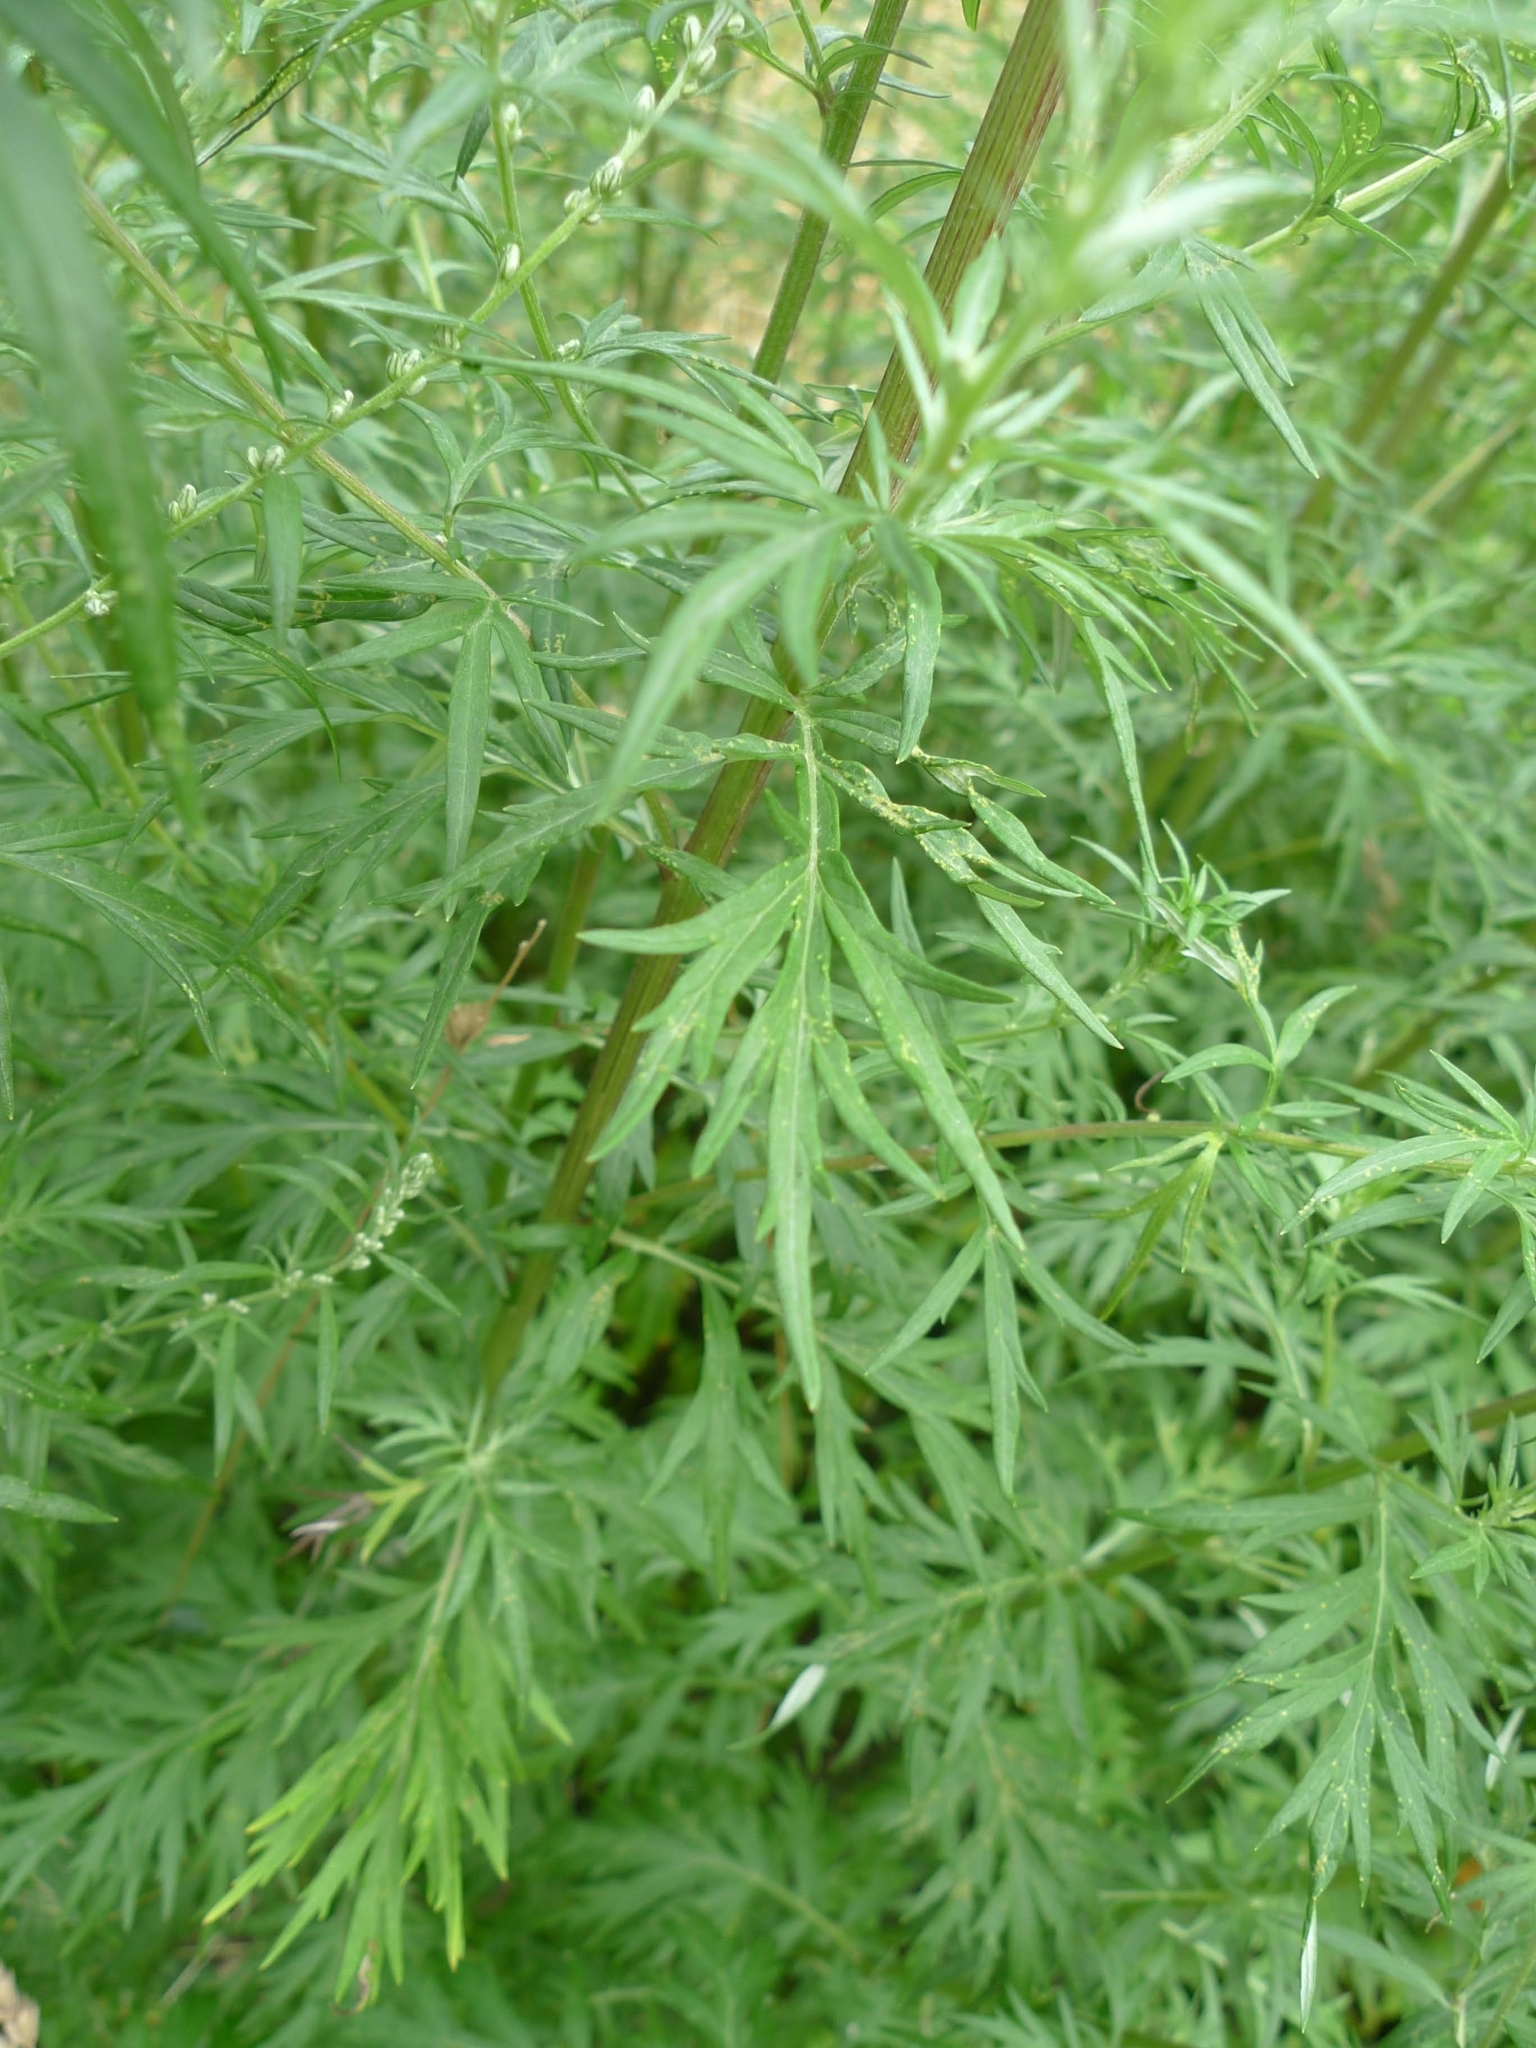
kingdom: Plantae
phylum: Tracheophyta
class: Magnoliopsida
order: Asterales
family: Asteraceae
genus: Artemisia
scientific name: Artemisia vulgaris
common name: Mugwort
